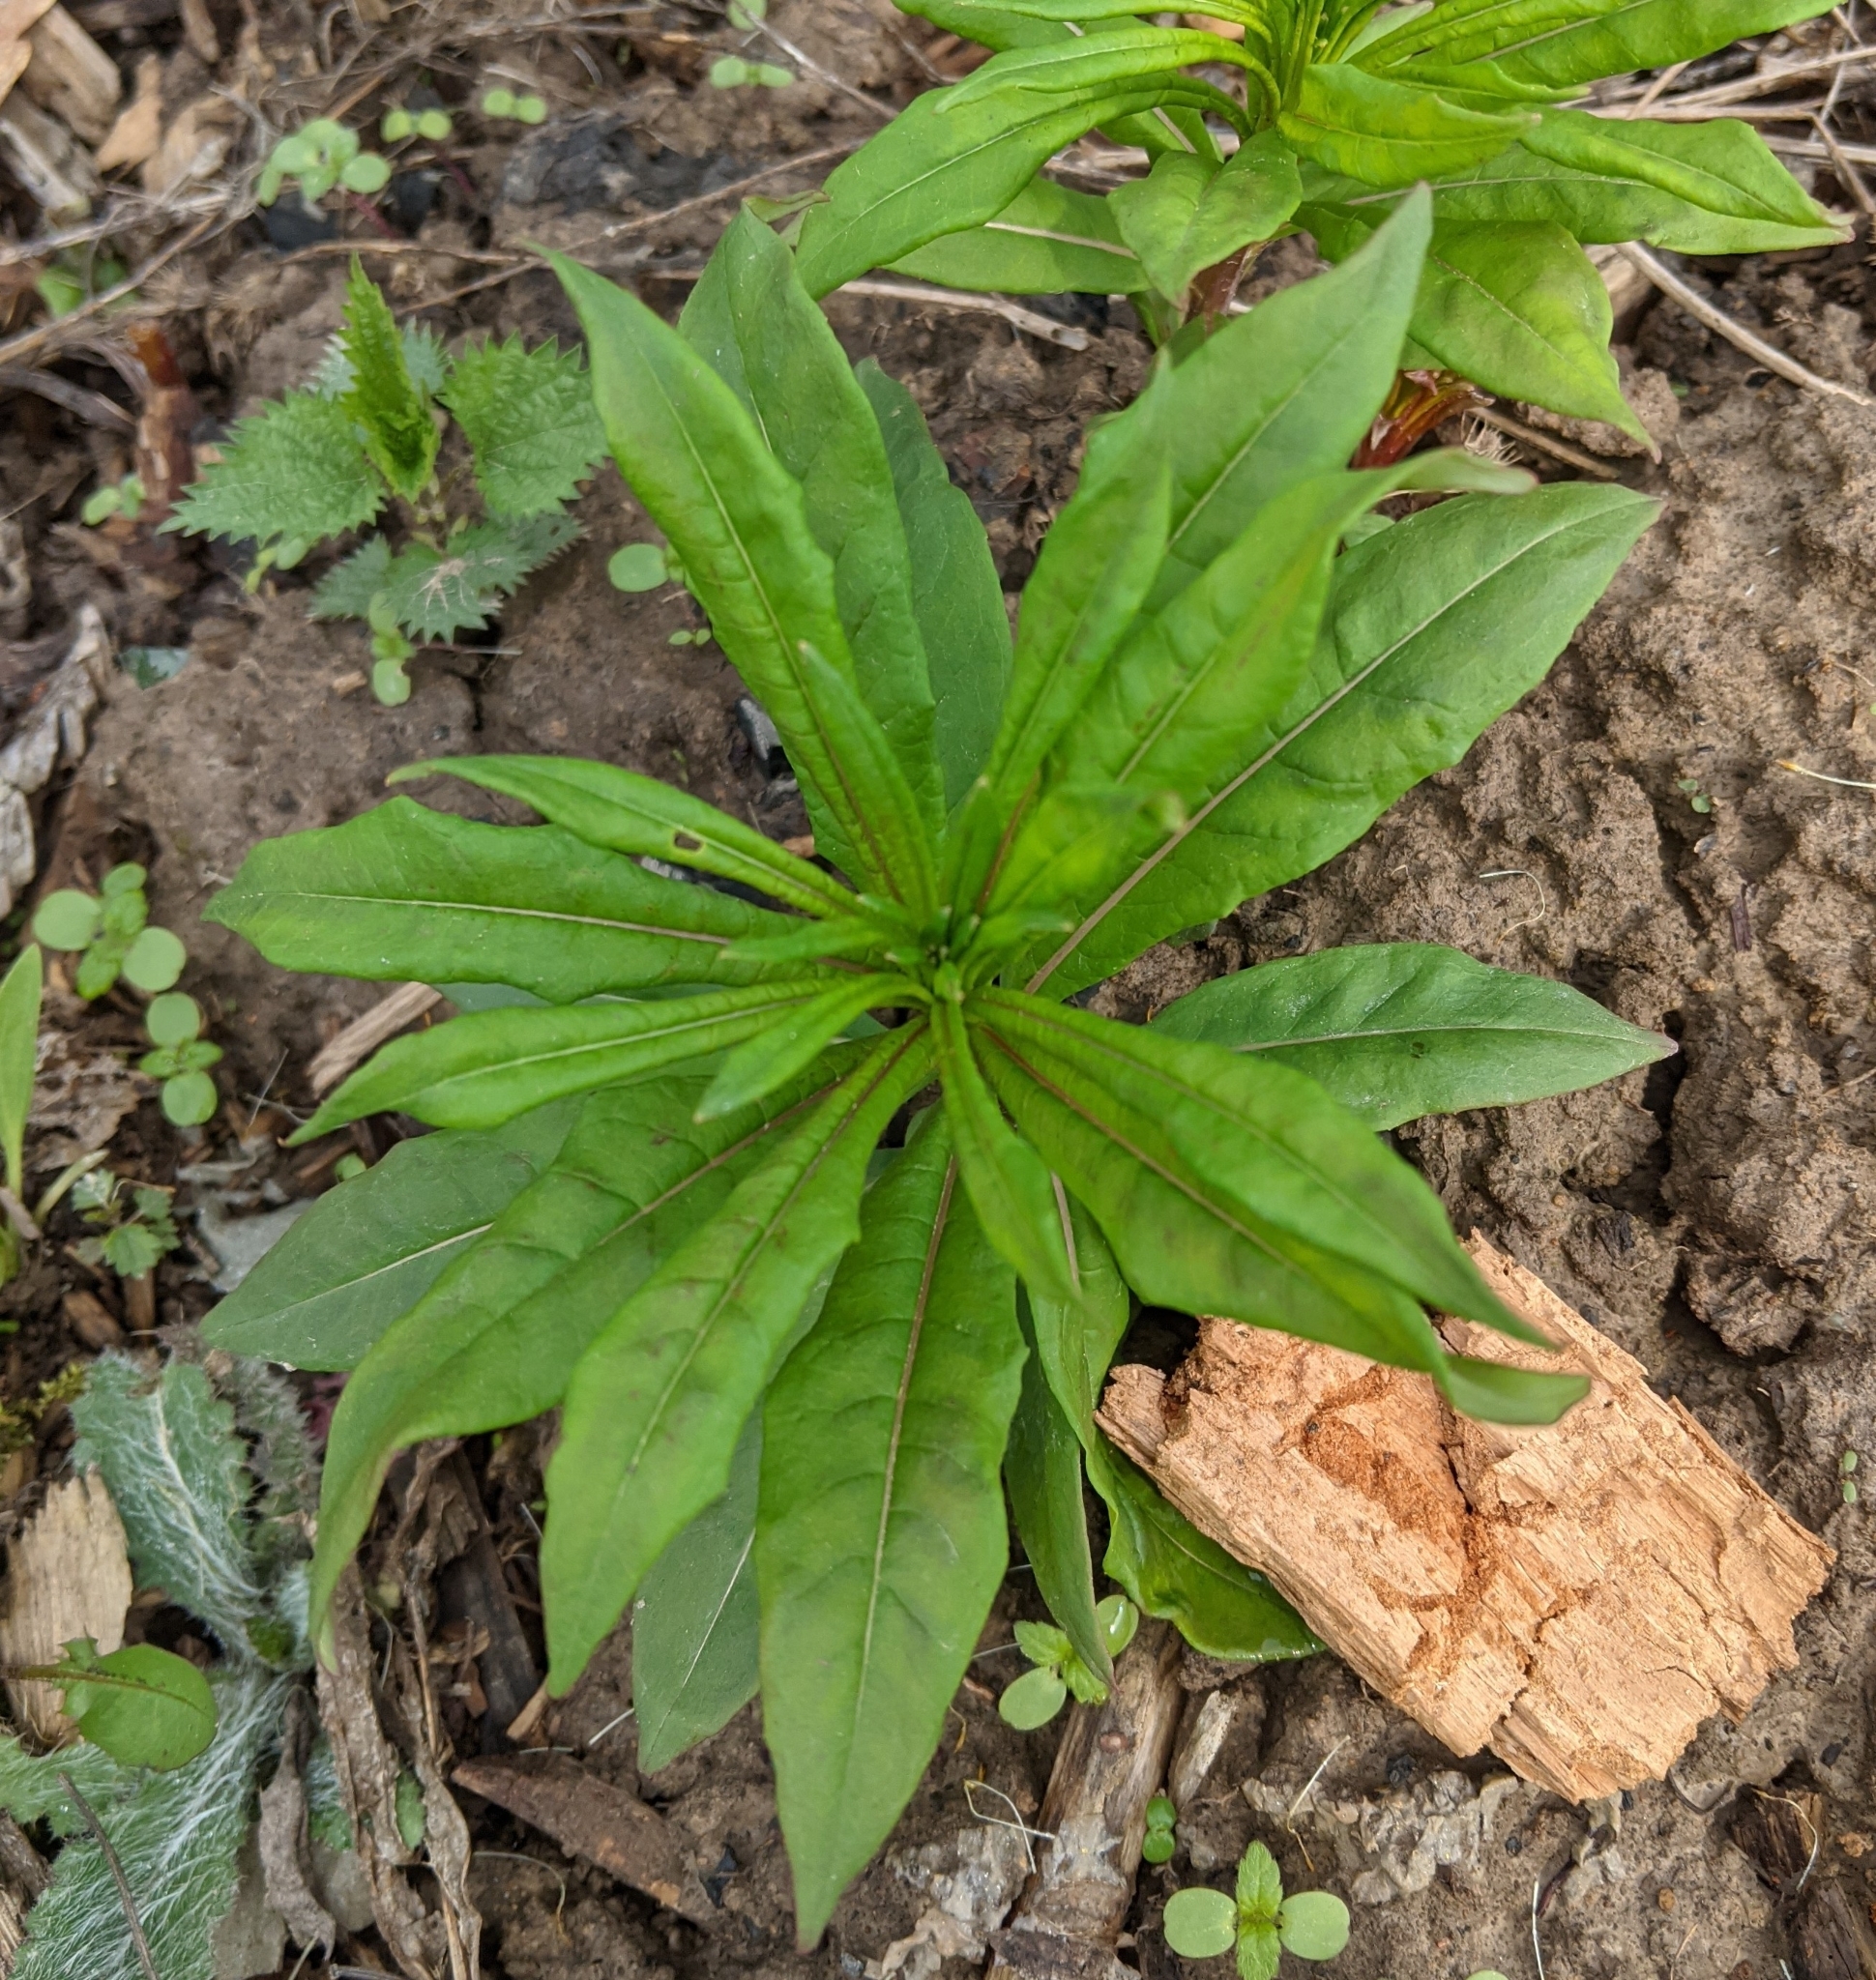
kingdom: Plantae
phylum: Tracheophyta
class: Magnoliopsida
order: Myrtales
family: Onagraceae
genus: Chamaenerion
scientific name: Chamaenerion angustifolium
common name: Fireweed
